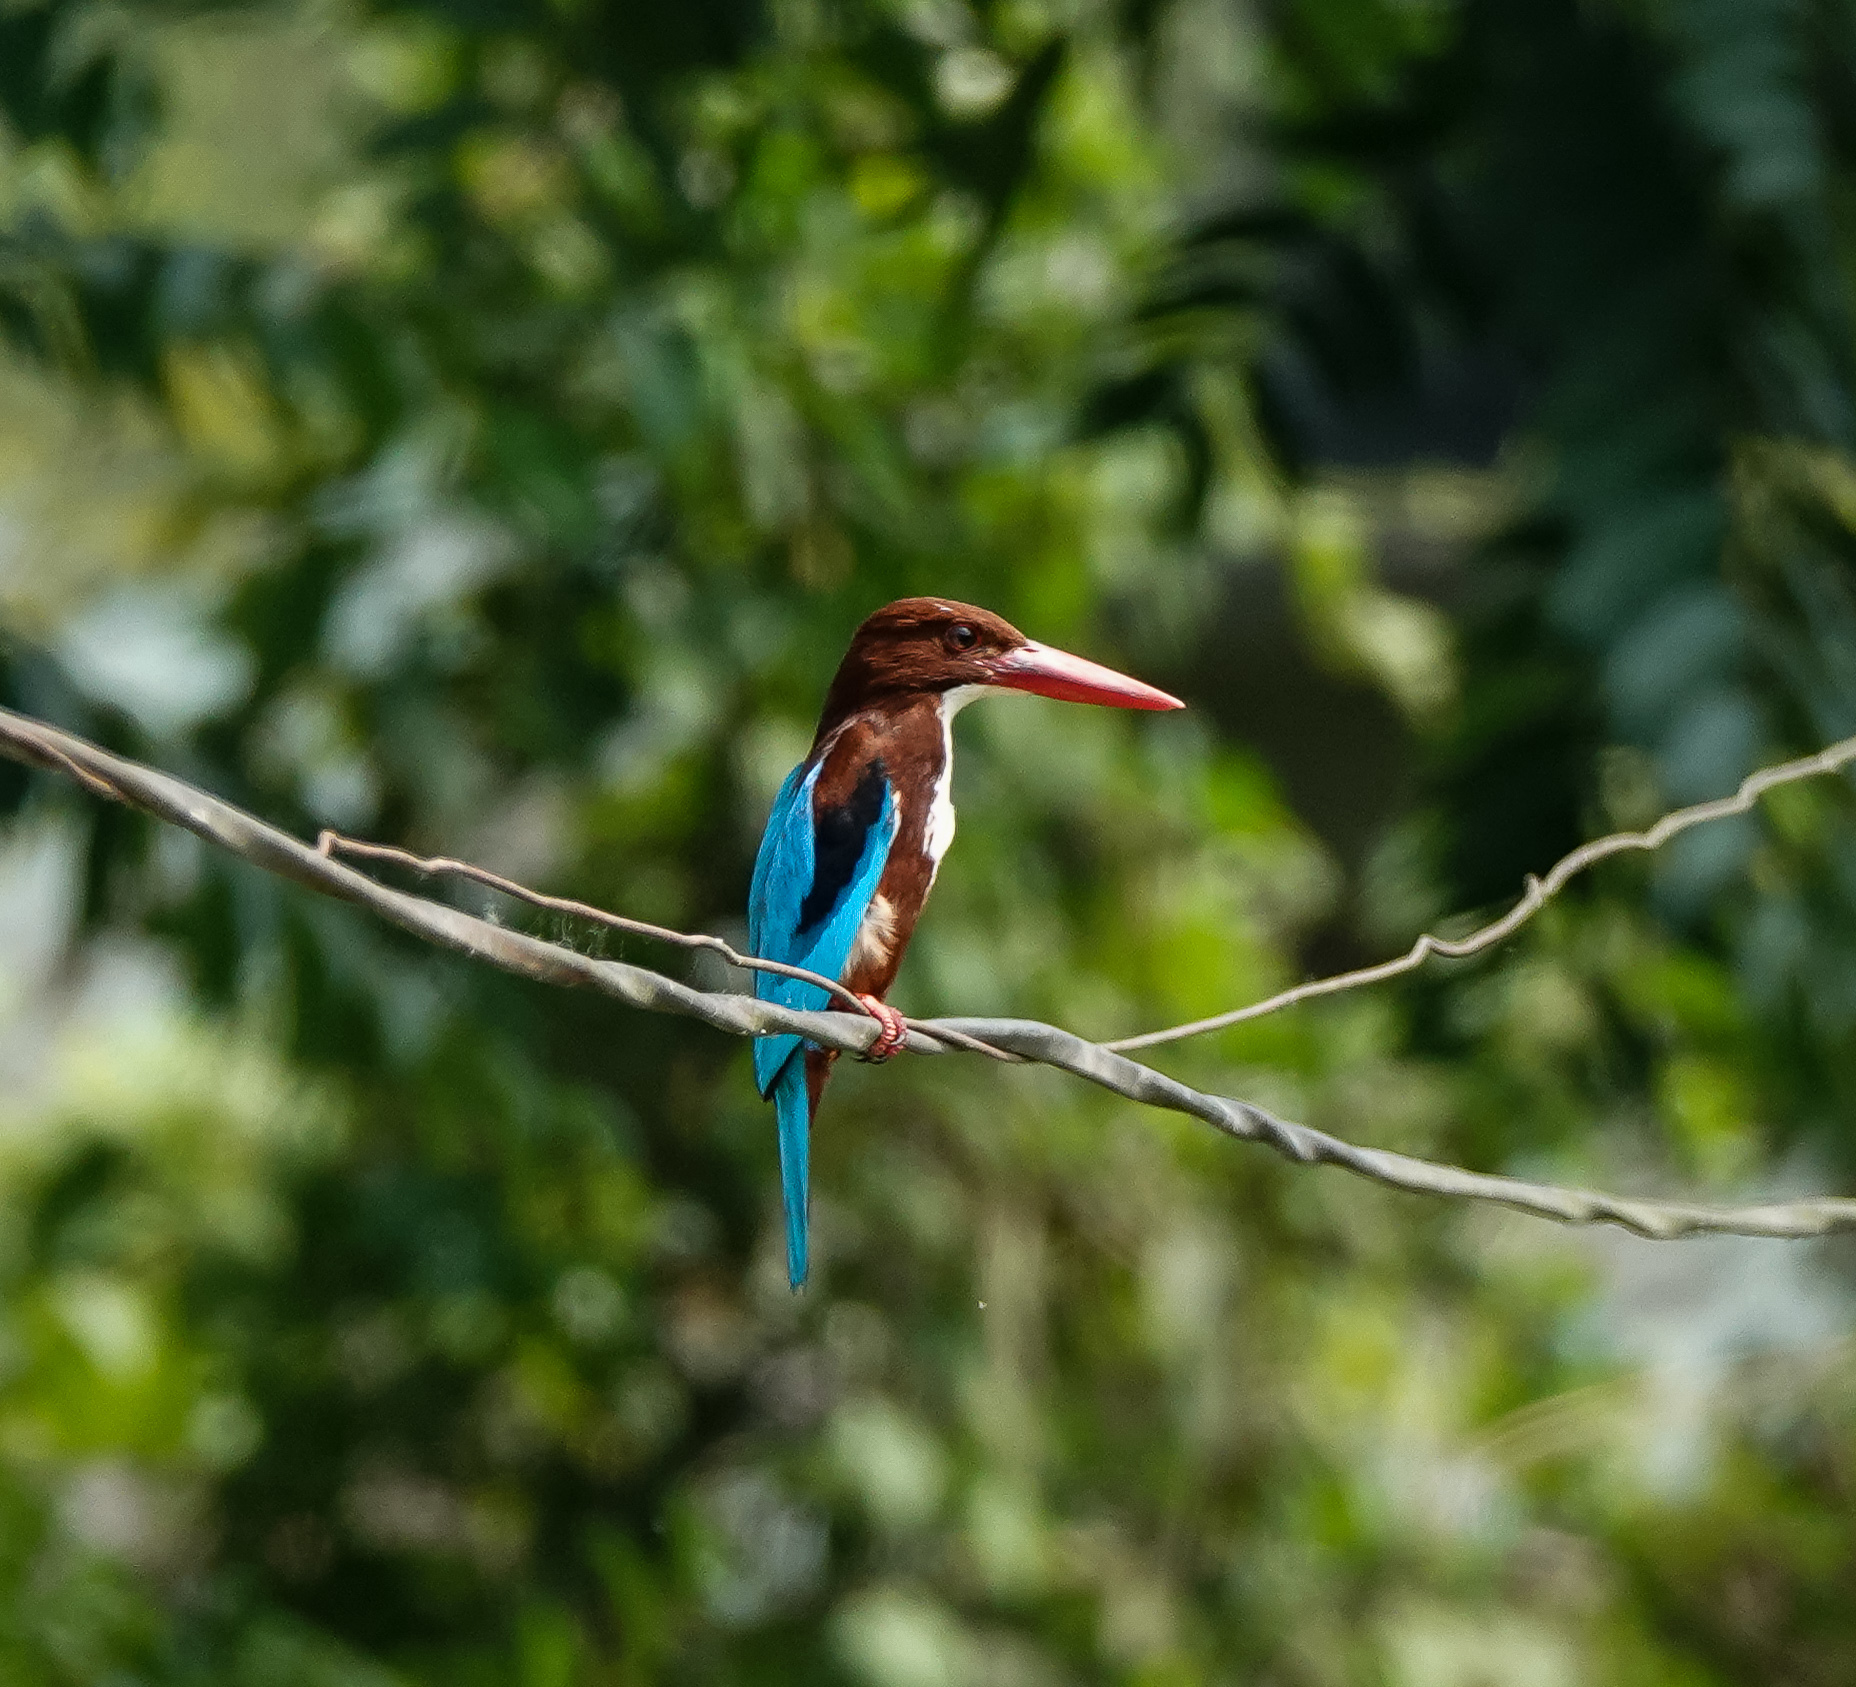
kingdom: Animalia
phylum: Chordata
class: Aves
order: Coraciiformes
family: Alcedinidae
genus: Halcyon
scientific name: Halcyon smyrnensis
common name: White-throated kingfisher
